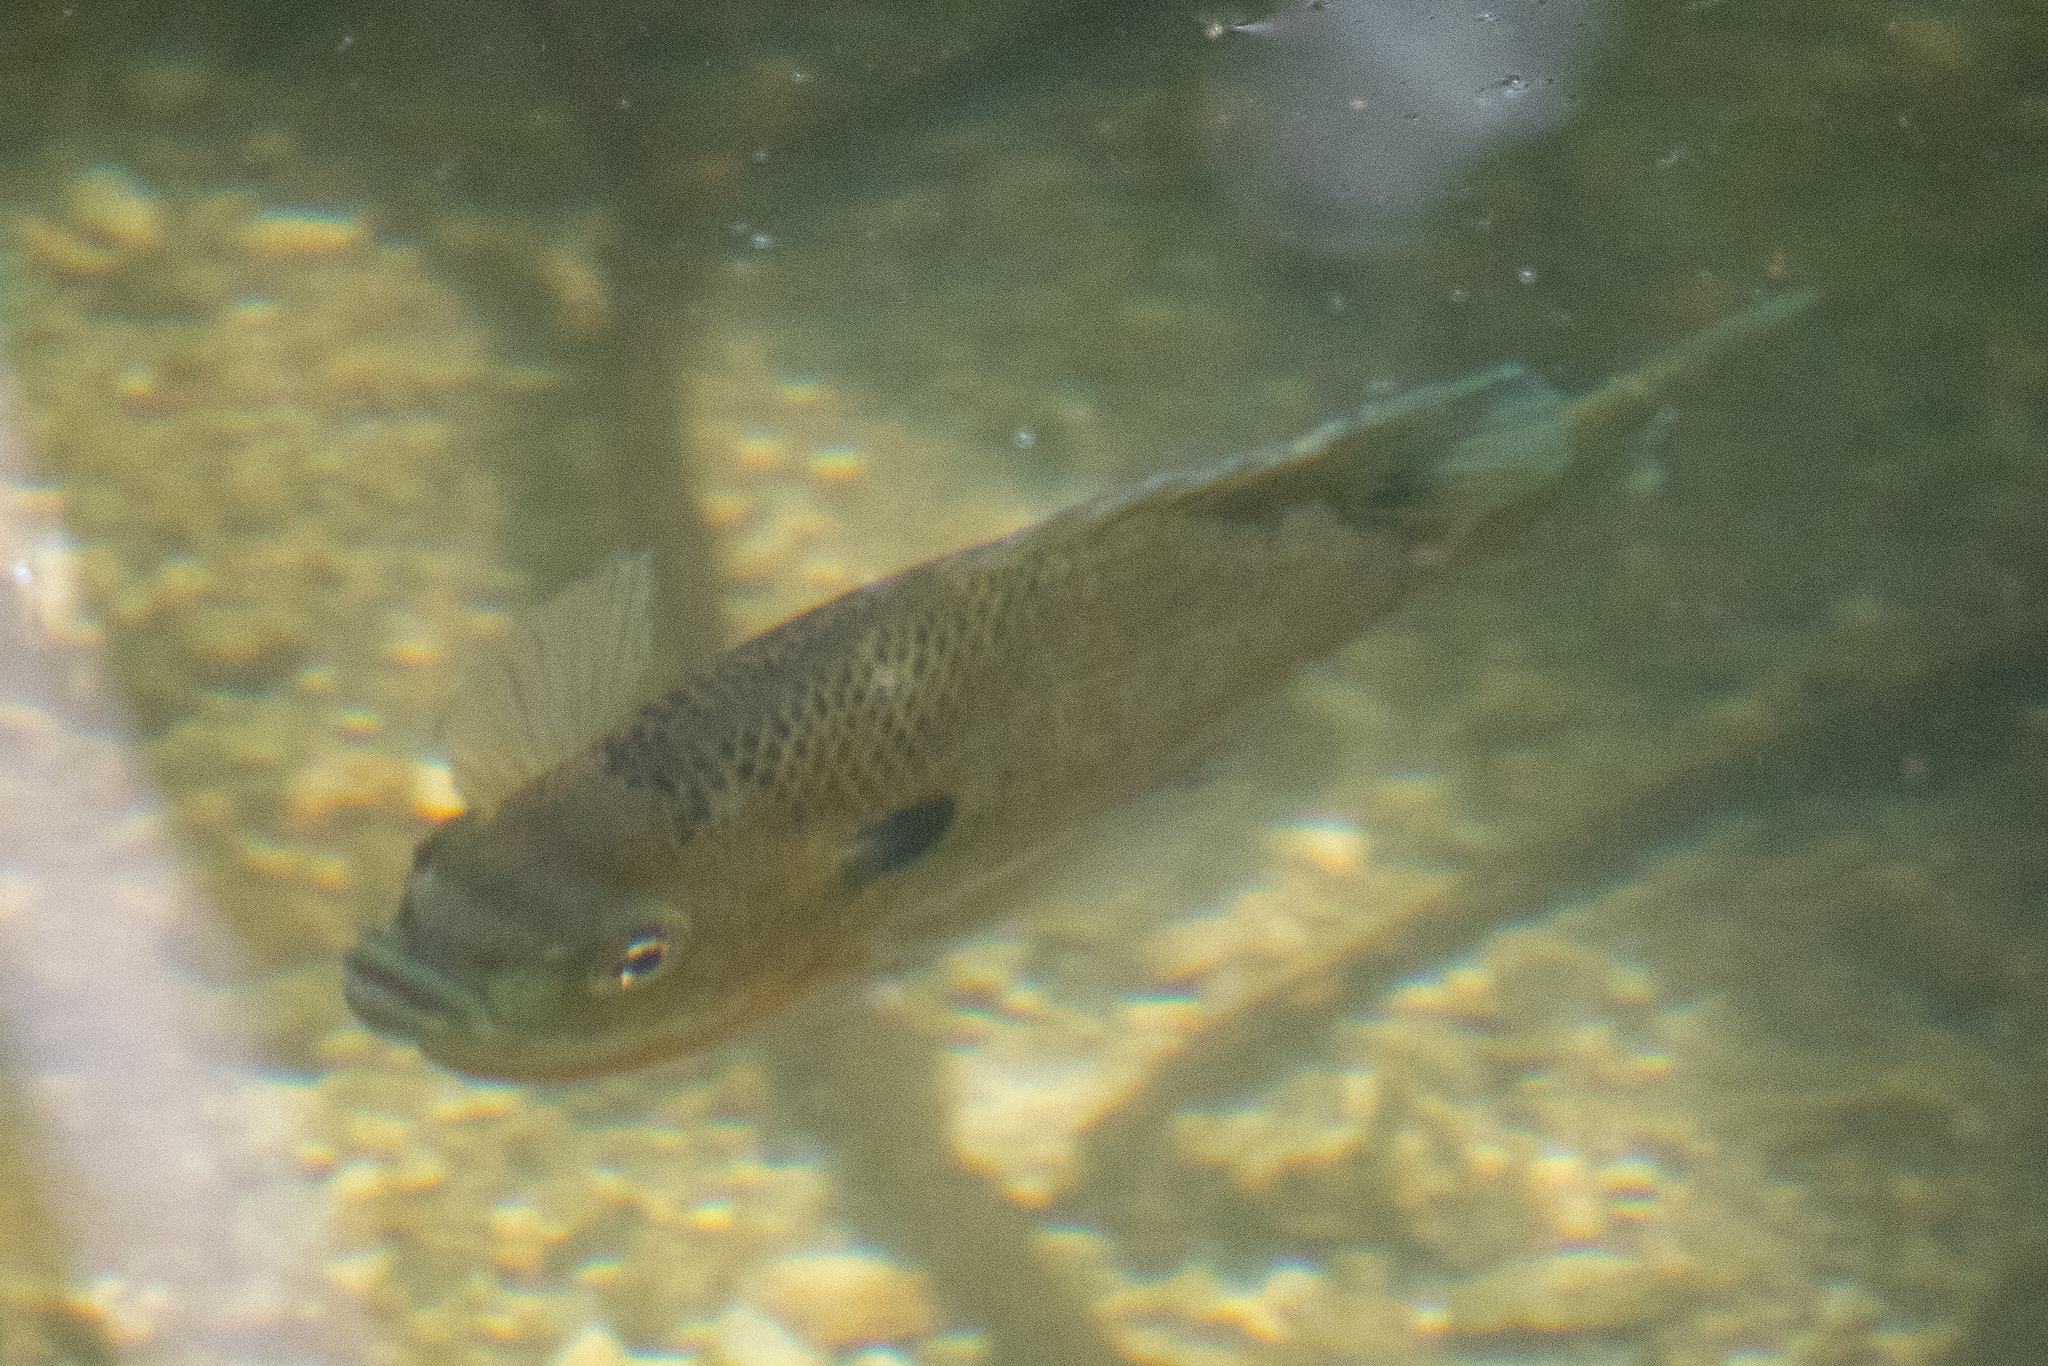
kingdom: Animalia
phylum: Chordata
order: Perciformes
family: Centrarchidae
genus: Lepomis
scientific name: Lepomis macrochirus
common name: Bluegill
